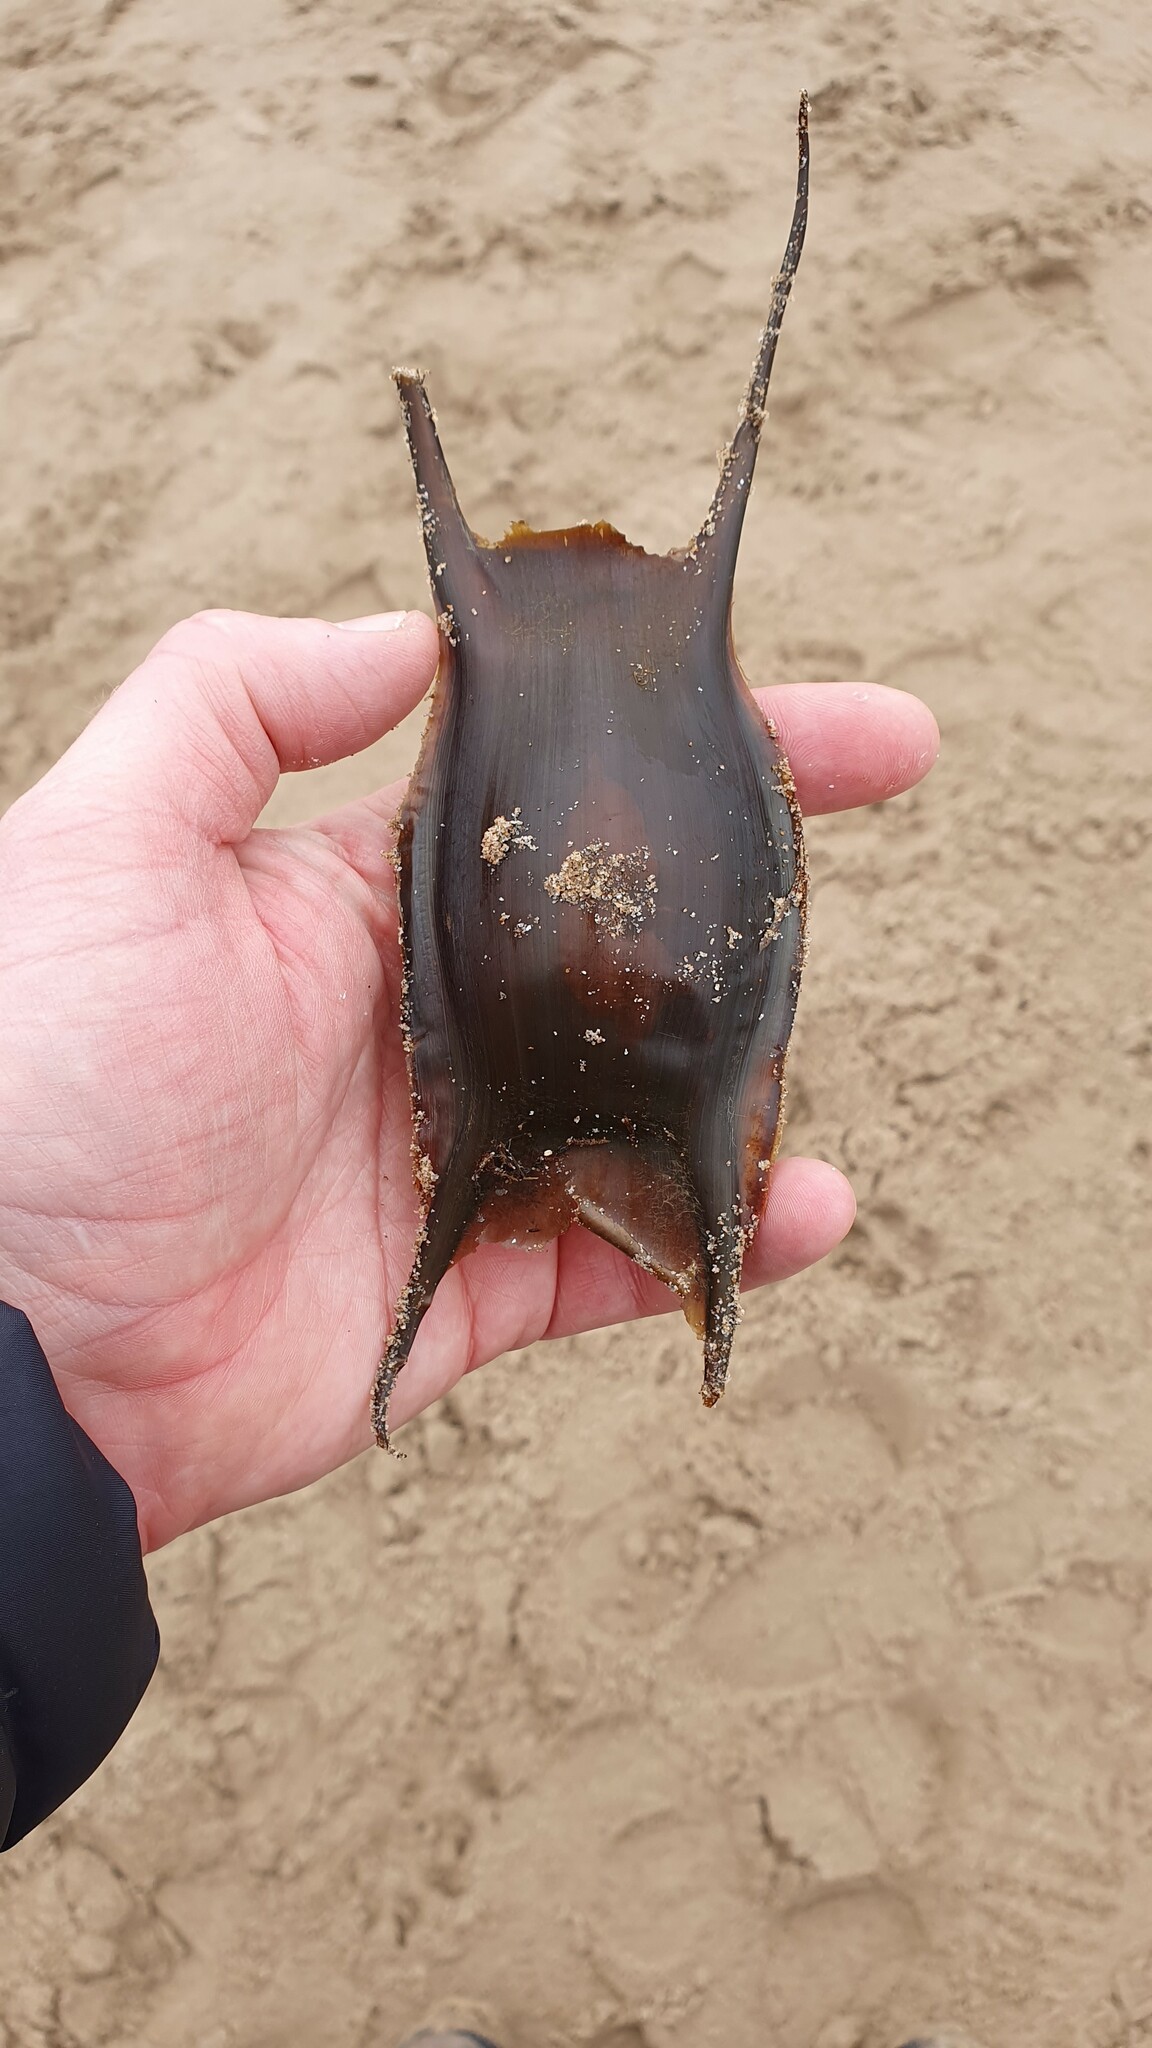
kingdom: Animalia
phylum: Chordata
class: Elasmobranchii
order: Rajiformes
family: Rajidae
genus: Raja
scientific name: Raja brachyura
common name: Blonde ray
